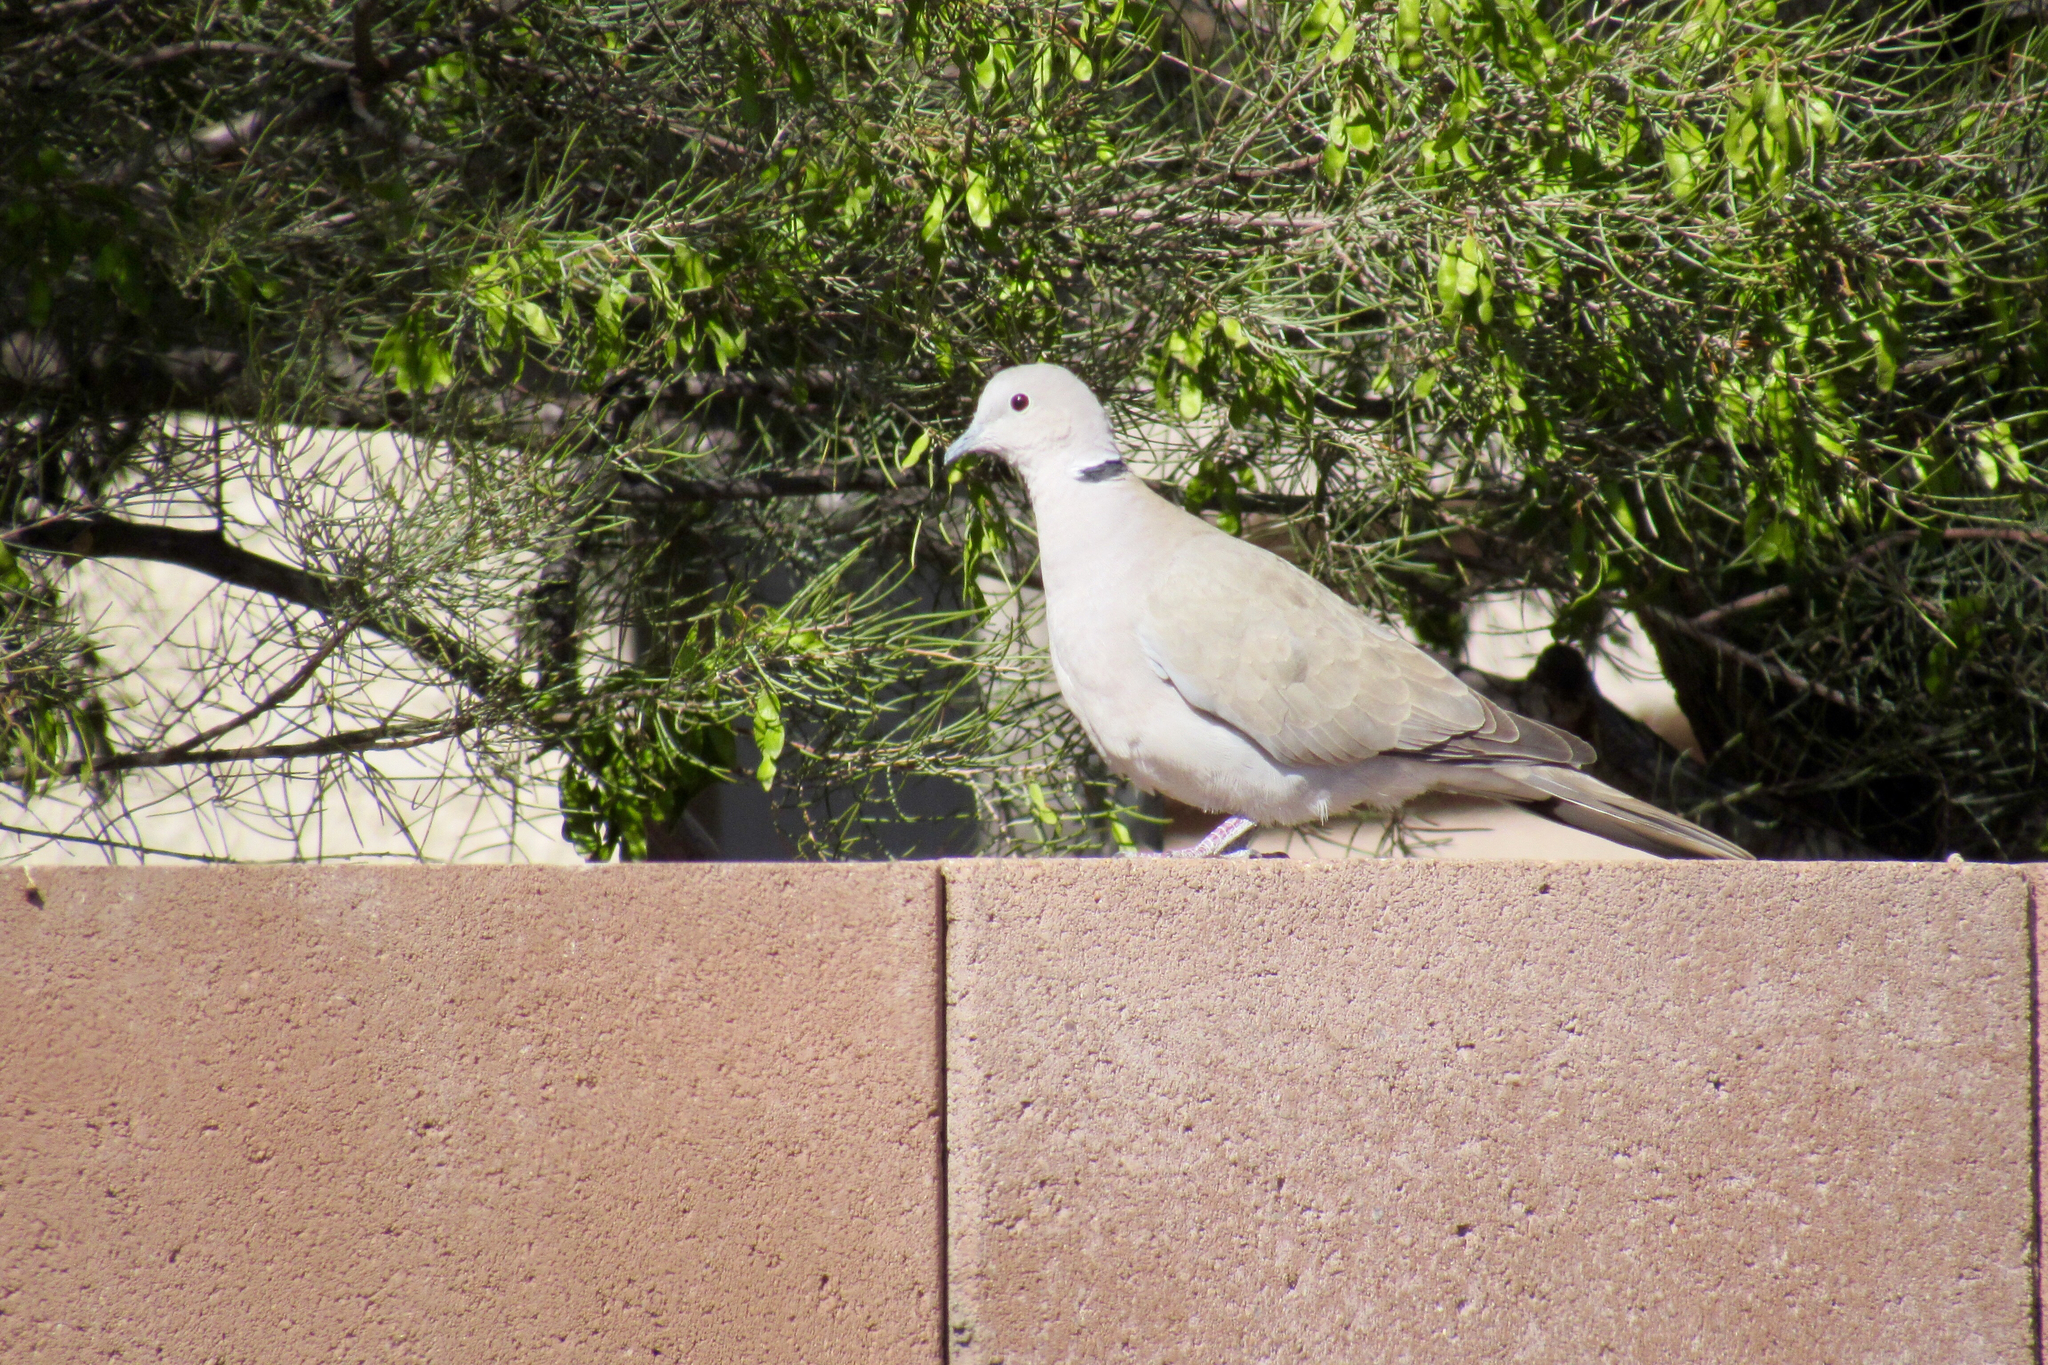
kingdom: Animalia
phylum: Chordata
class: Aves
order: Columbiformes
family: Columbidae
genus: Streptopelia
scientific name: Streptopelia decaocto
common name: Eurasian collared dove
